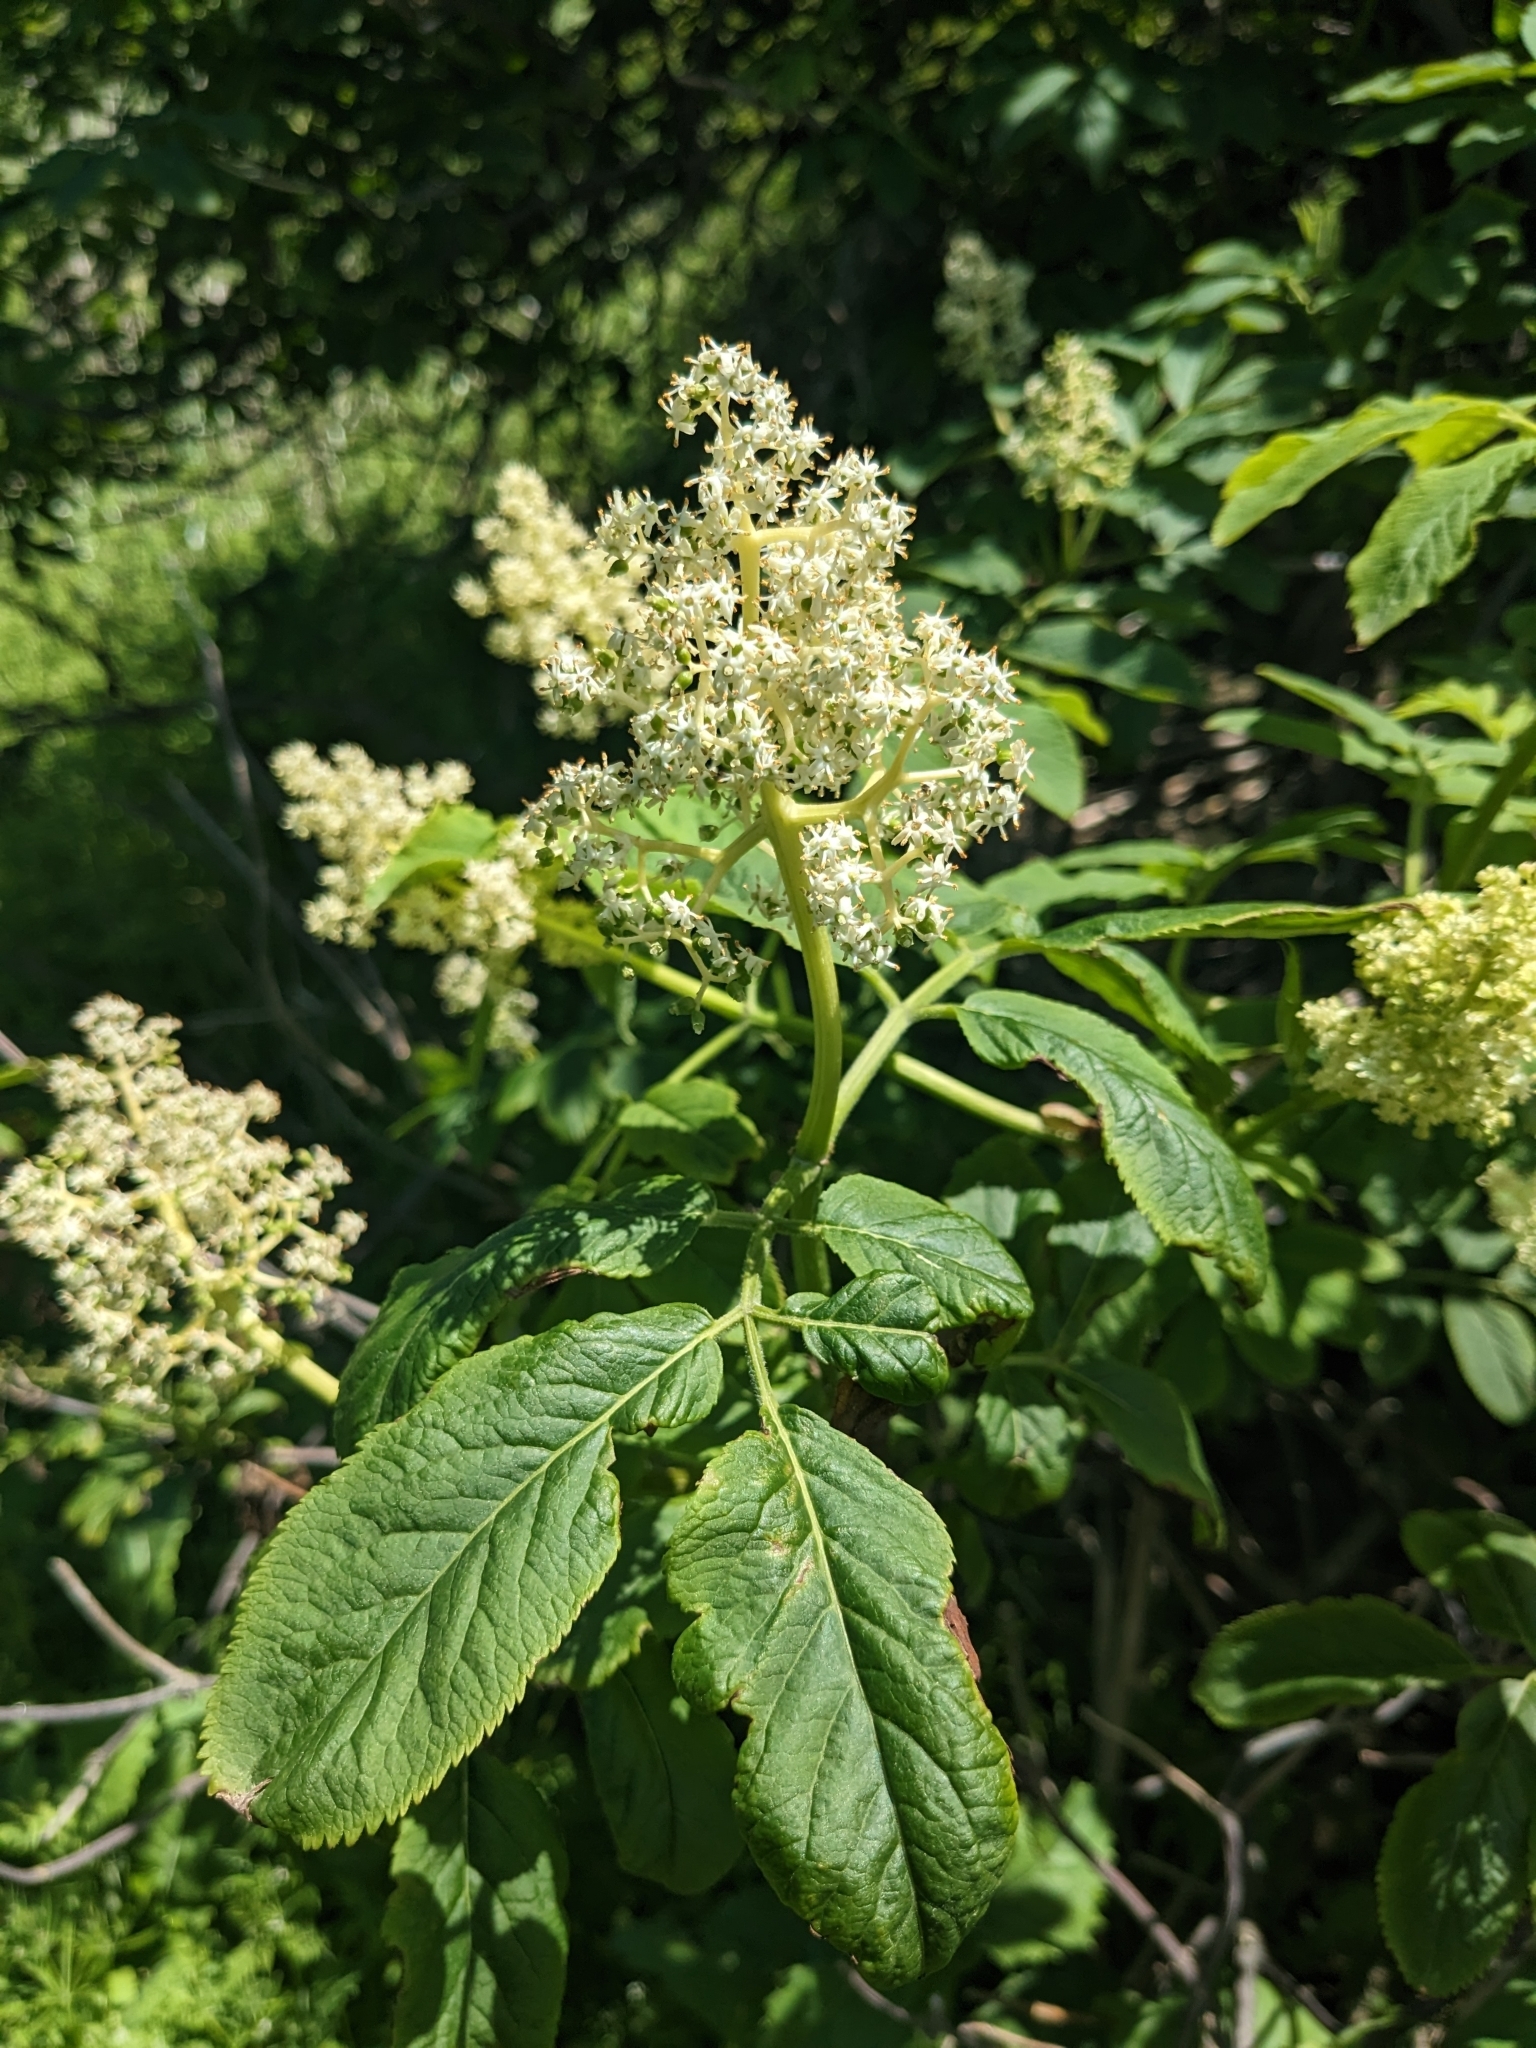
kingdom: Plantae
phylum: Tracheophyta
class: Magnoliopsida
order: Dipsacales
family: Viburnaceae
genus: Sambucus
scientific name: Sambucus racemosa
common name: Red-berried elder
